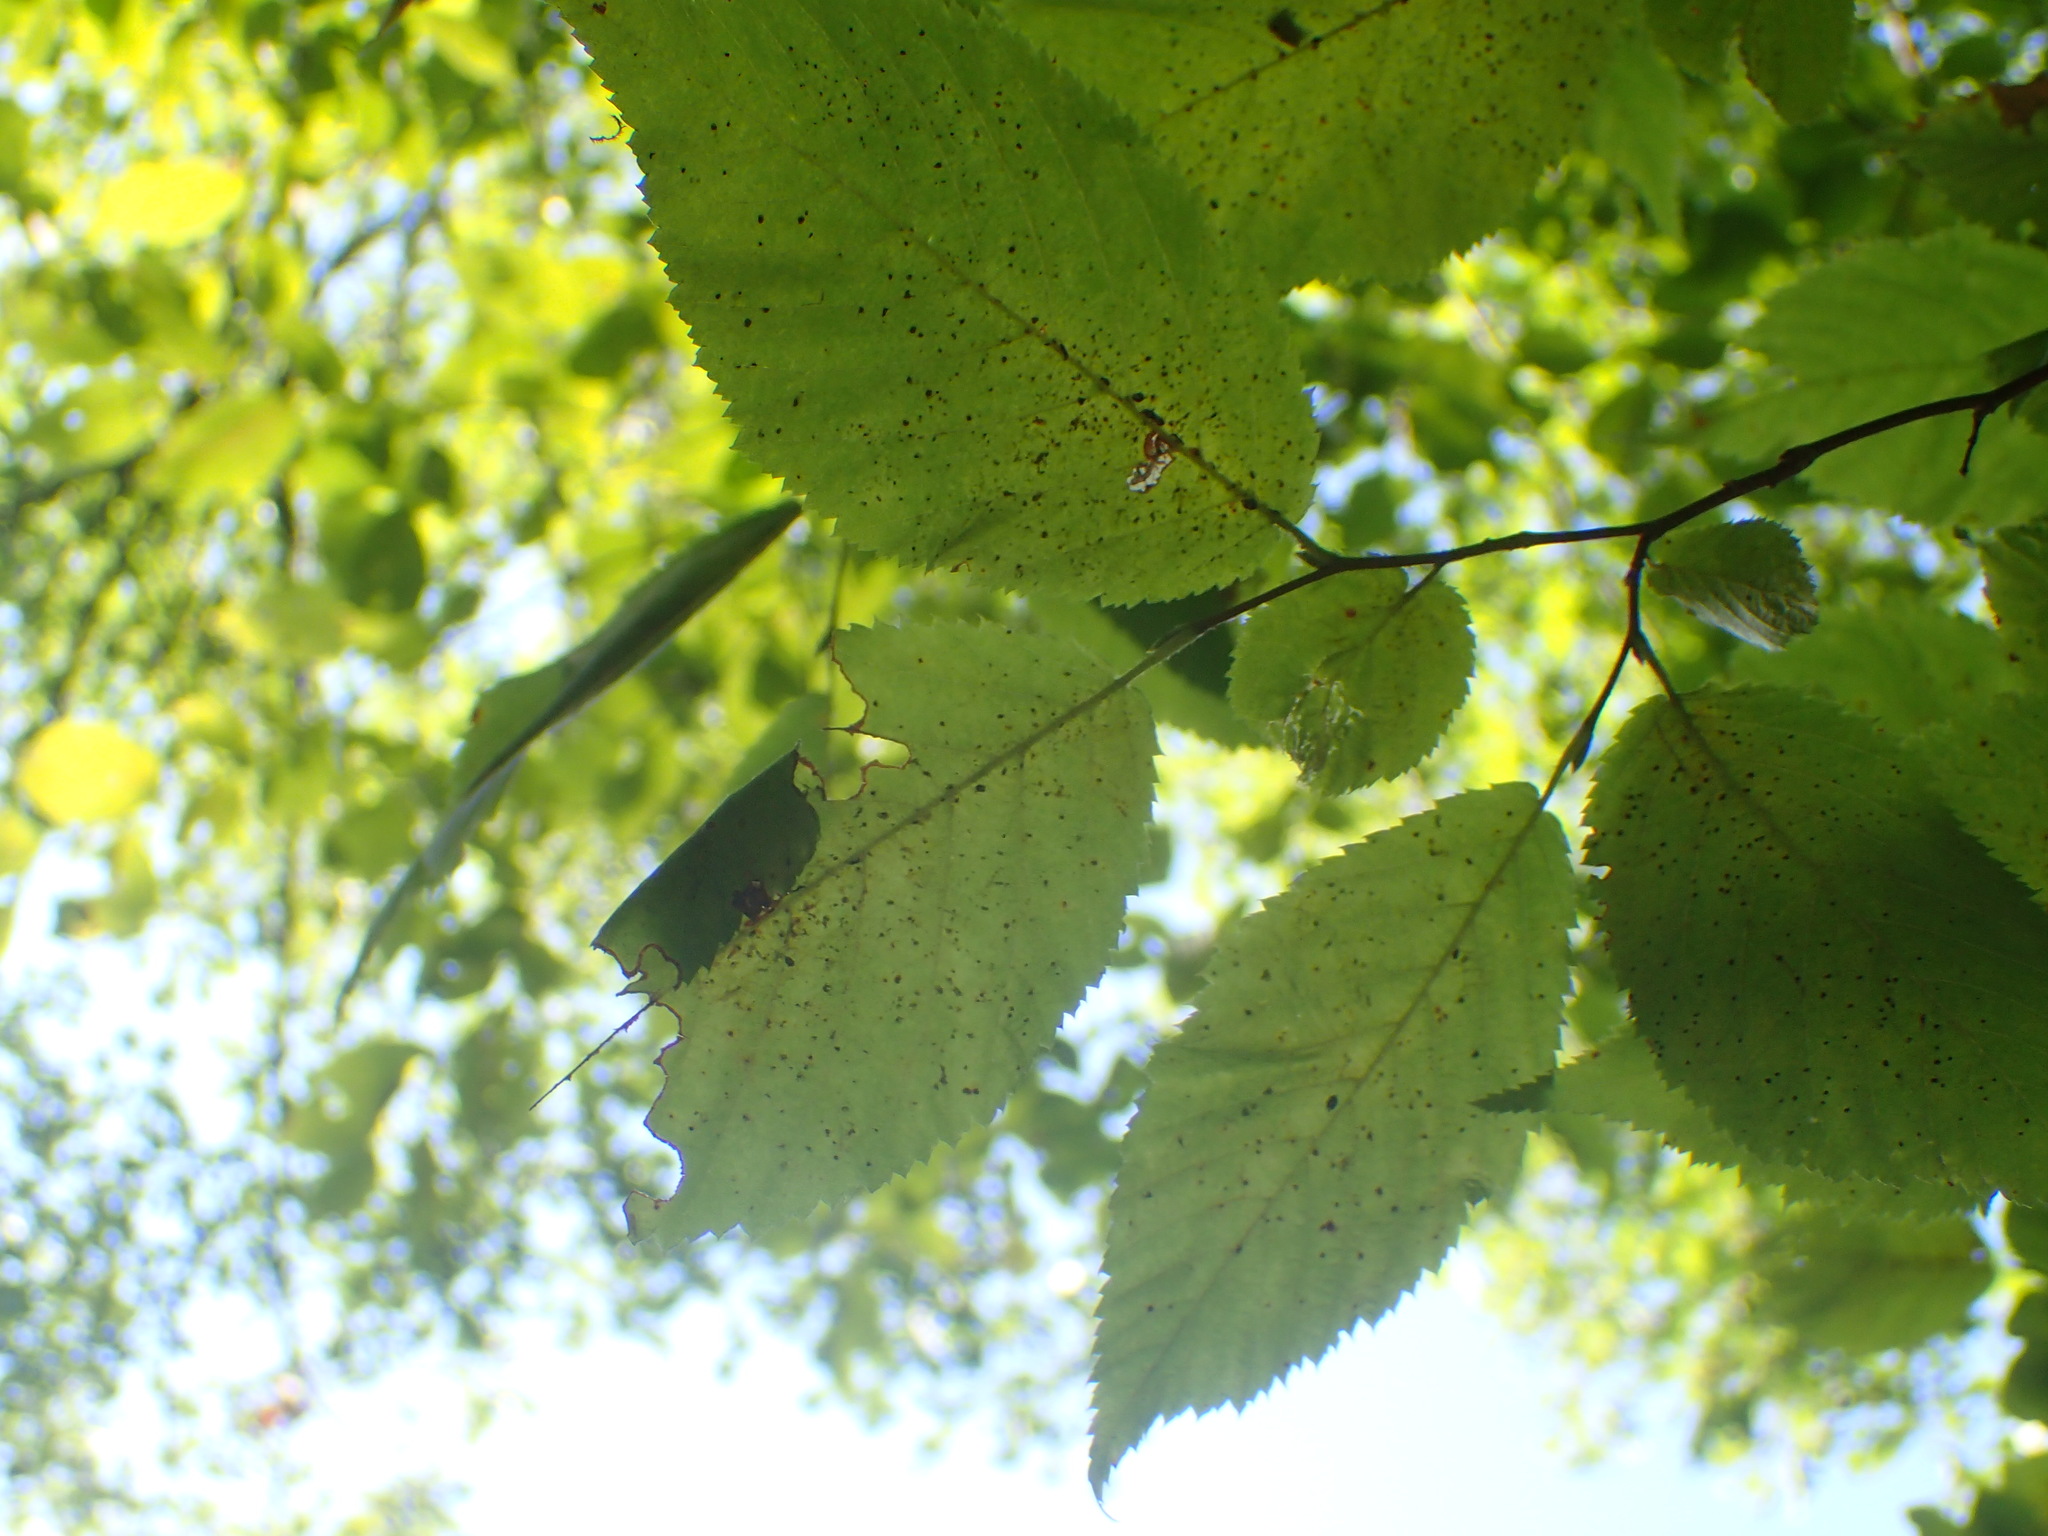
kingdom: Plantae
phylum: Tracheophyta
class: Magnoliopsida
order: Fagales
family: Betulaceae
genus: Ostrya
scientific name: Ostrya virginiana
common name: Ironwood
